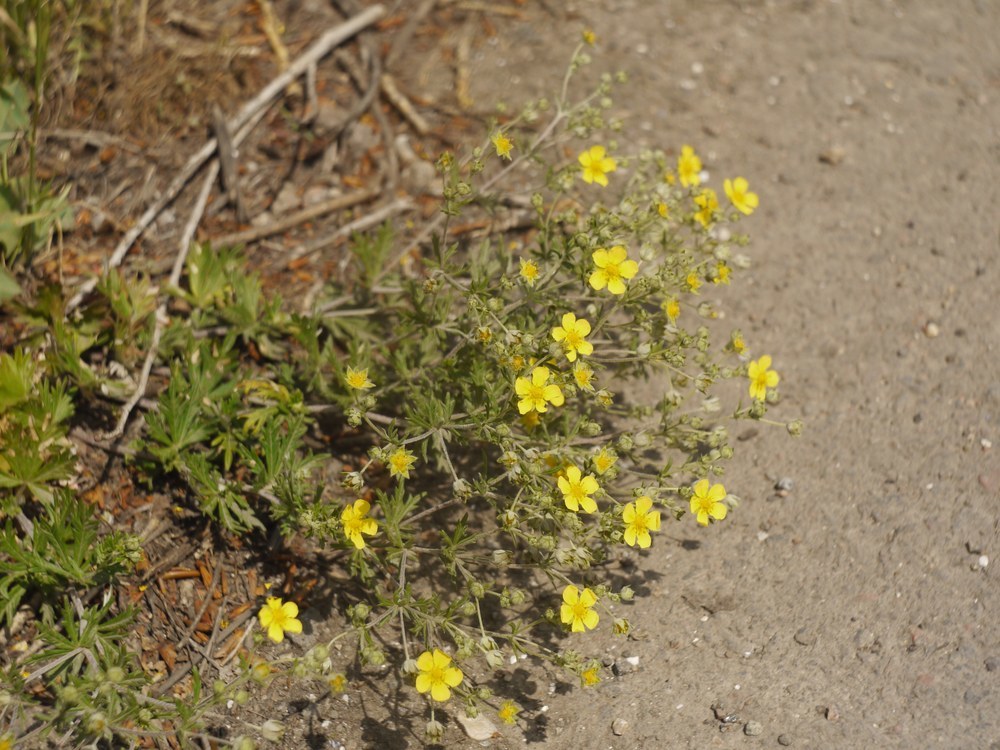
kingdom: Plantae
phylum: Tracheophyta
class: Magnoliopsida
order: Rosales
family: Rosaceae
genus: Potentilla
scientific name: Potentilla argentea
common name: Hoary cinquefoil
